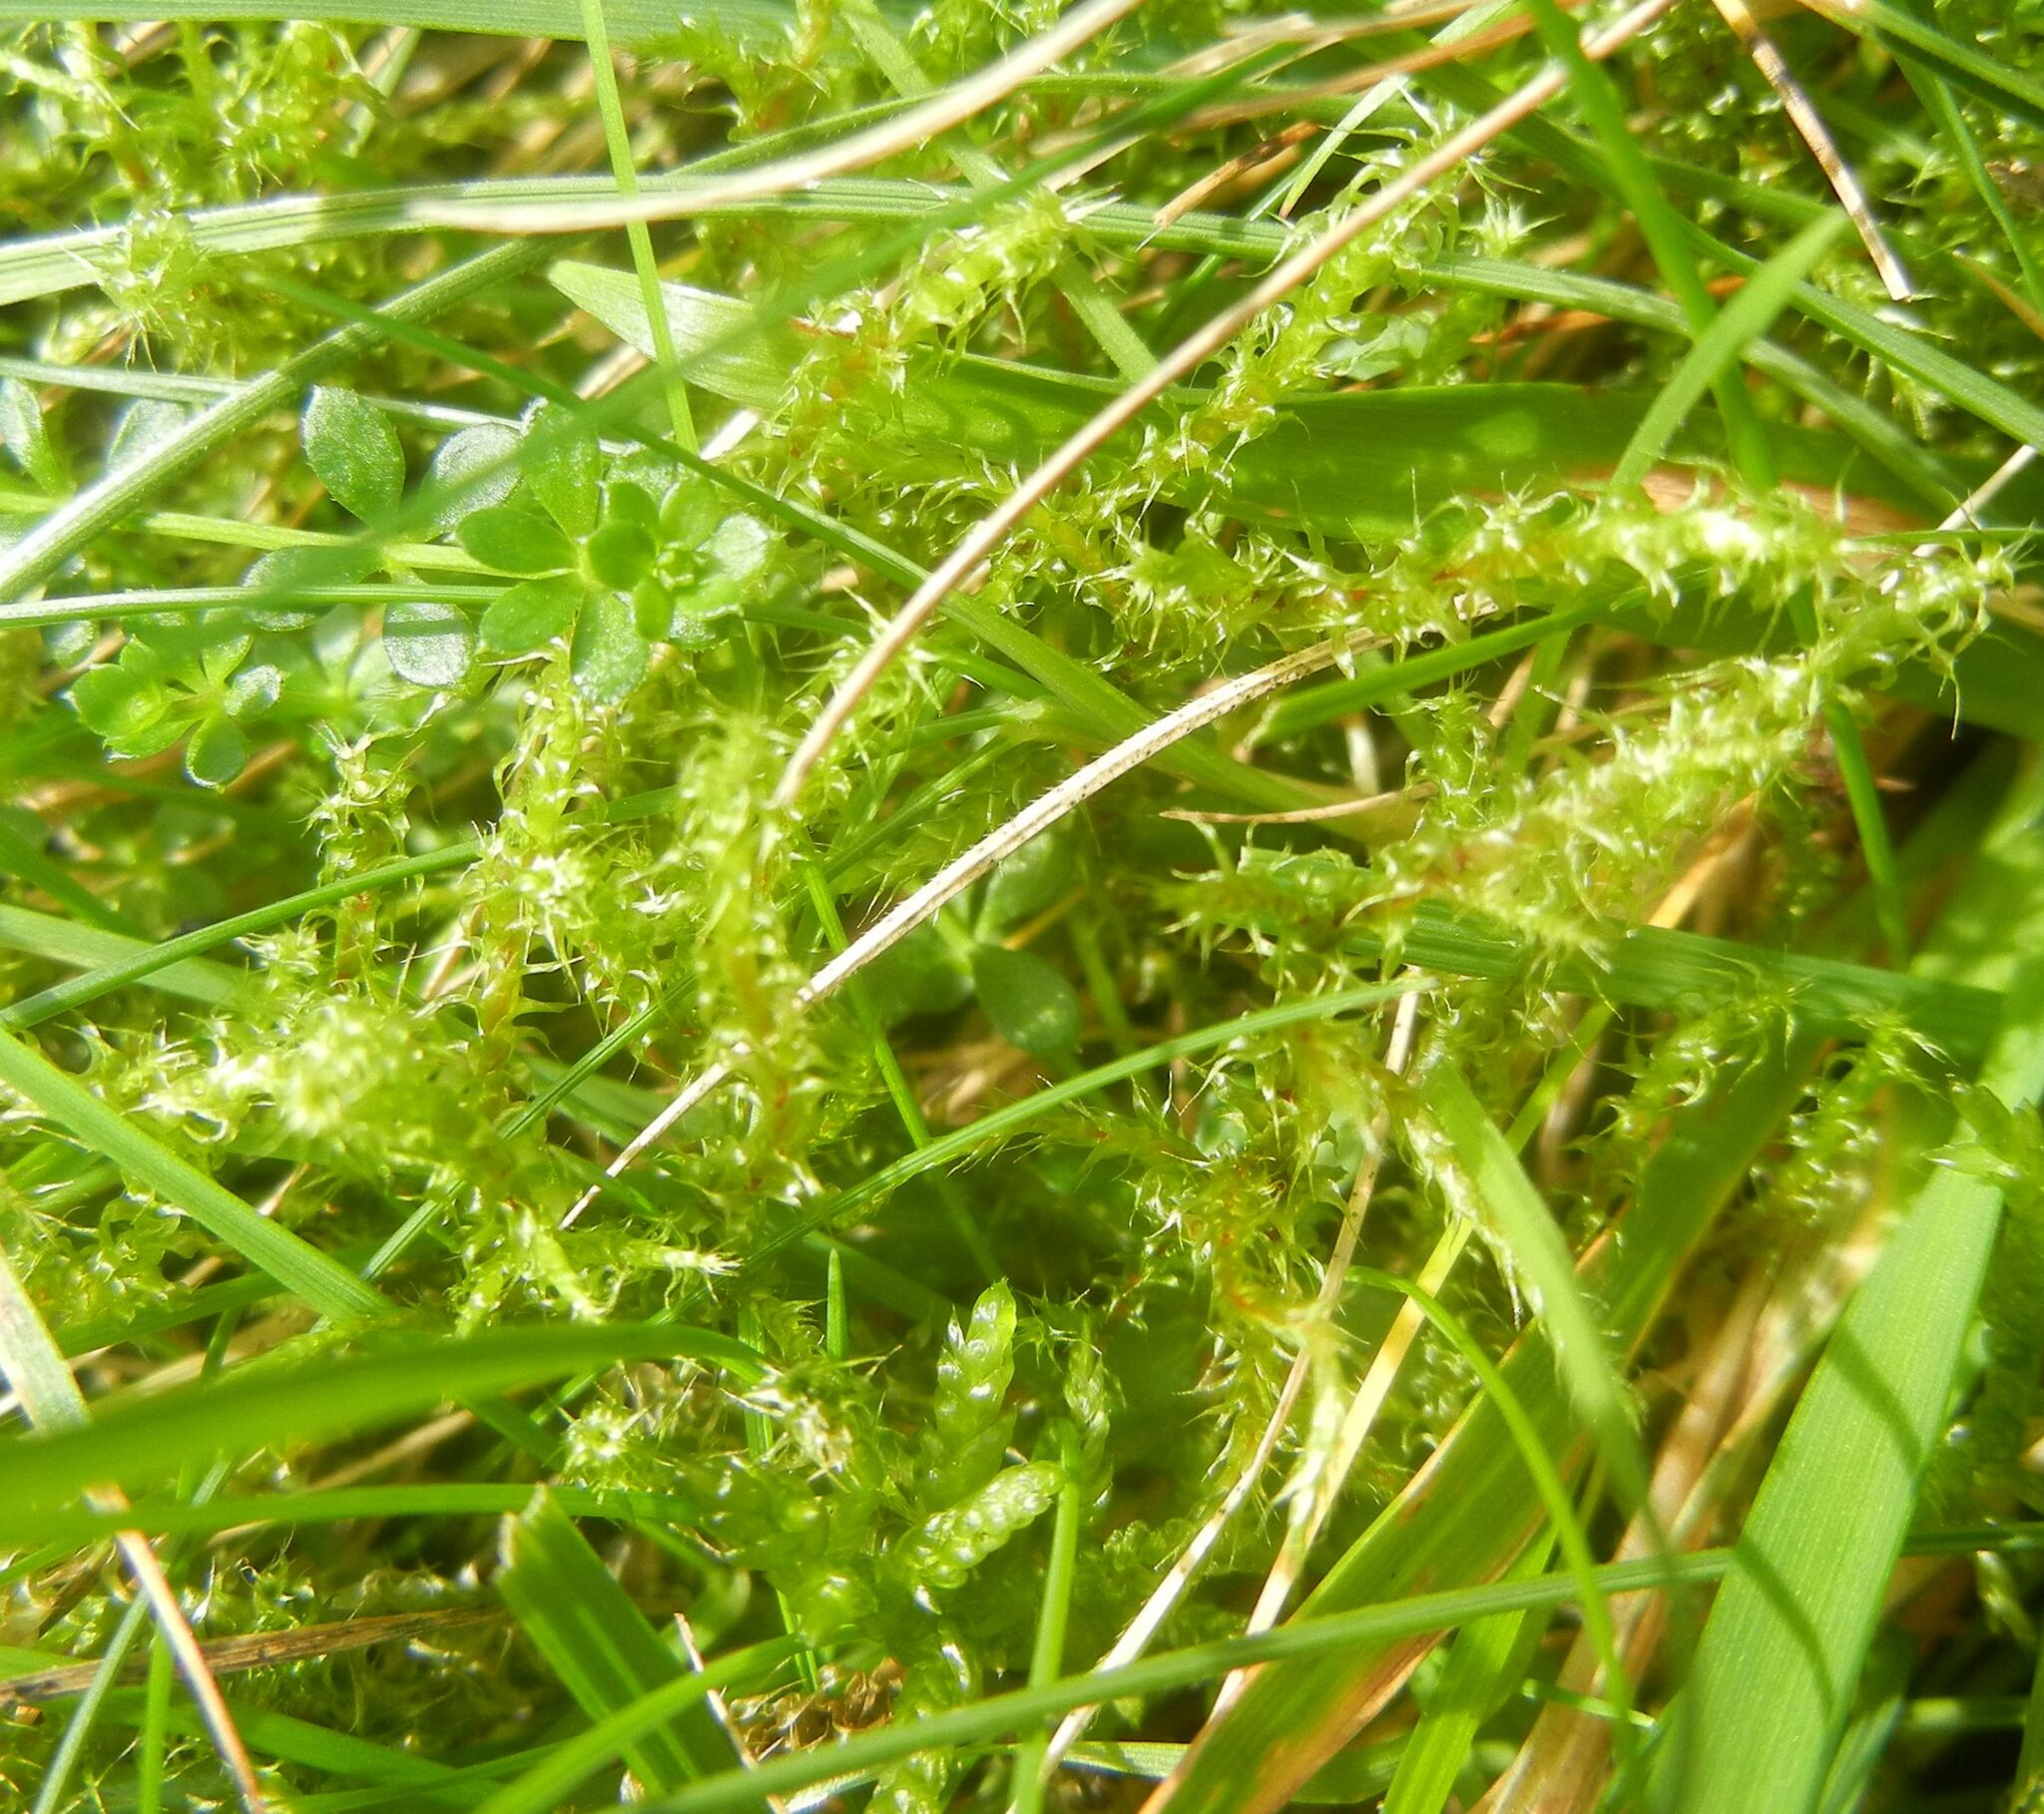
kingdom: Plantae
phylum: Bryophyta
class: Bryopsida
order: Hypnales
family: Hylocomiaceae
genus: Rhytidiadelphus
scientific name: Rhytidiadelphus squarrosus
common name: Springy turf-moss
